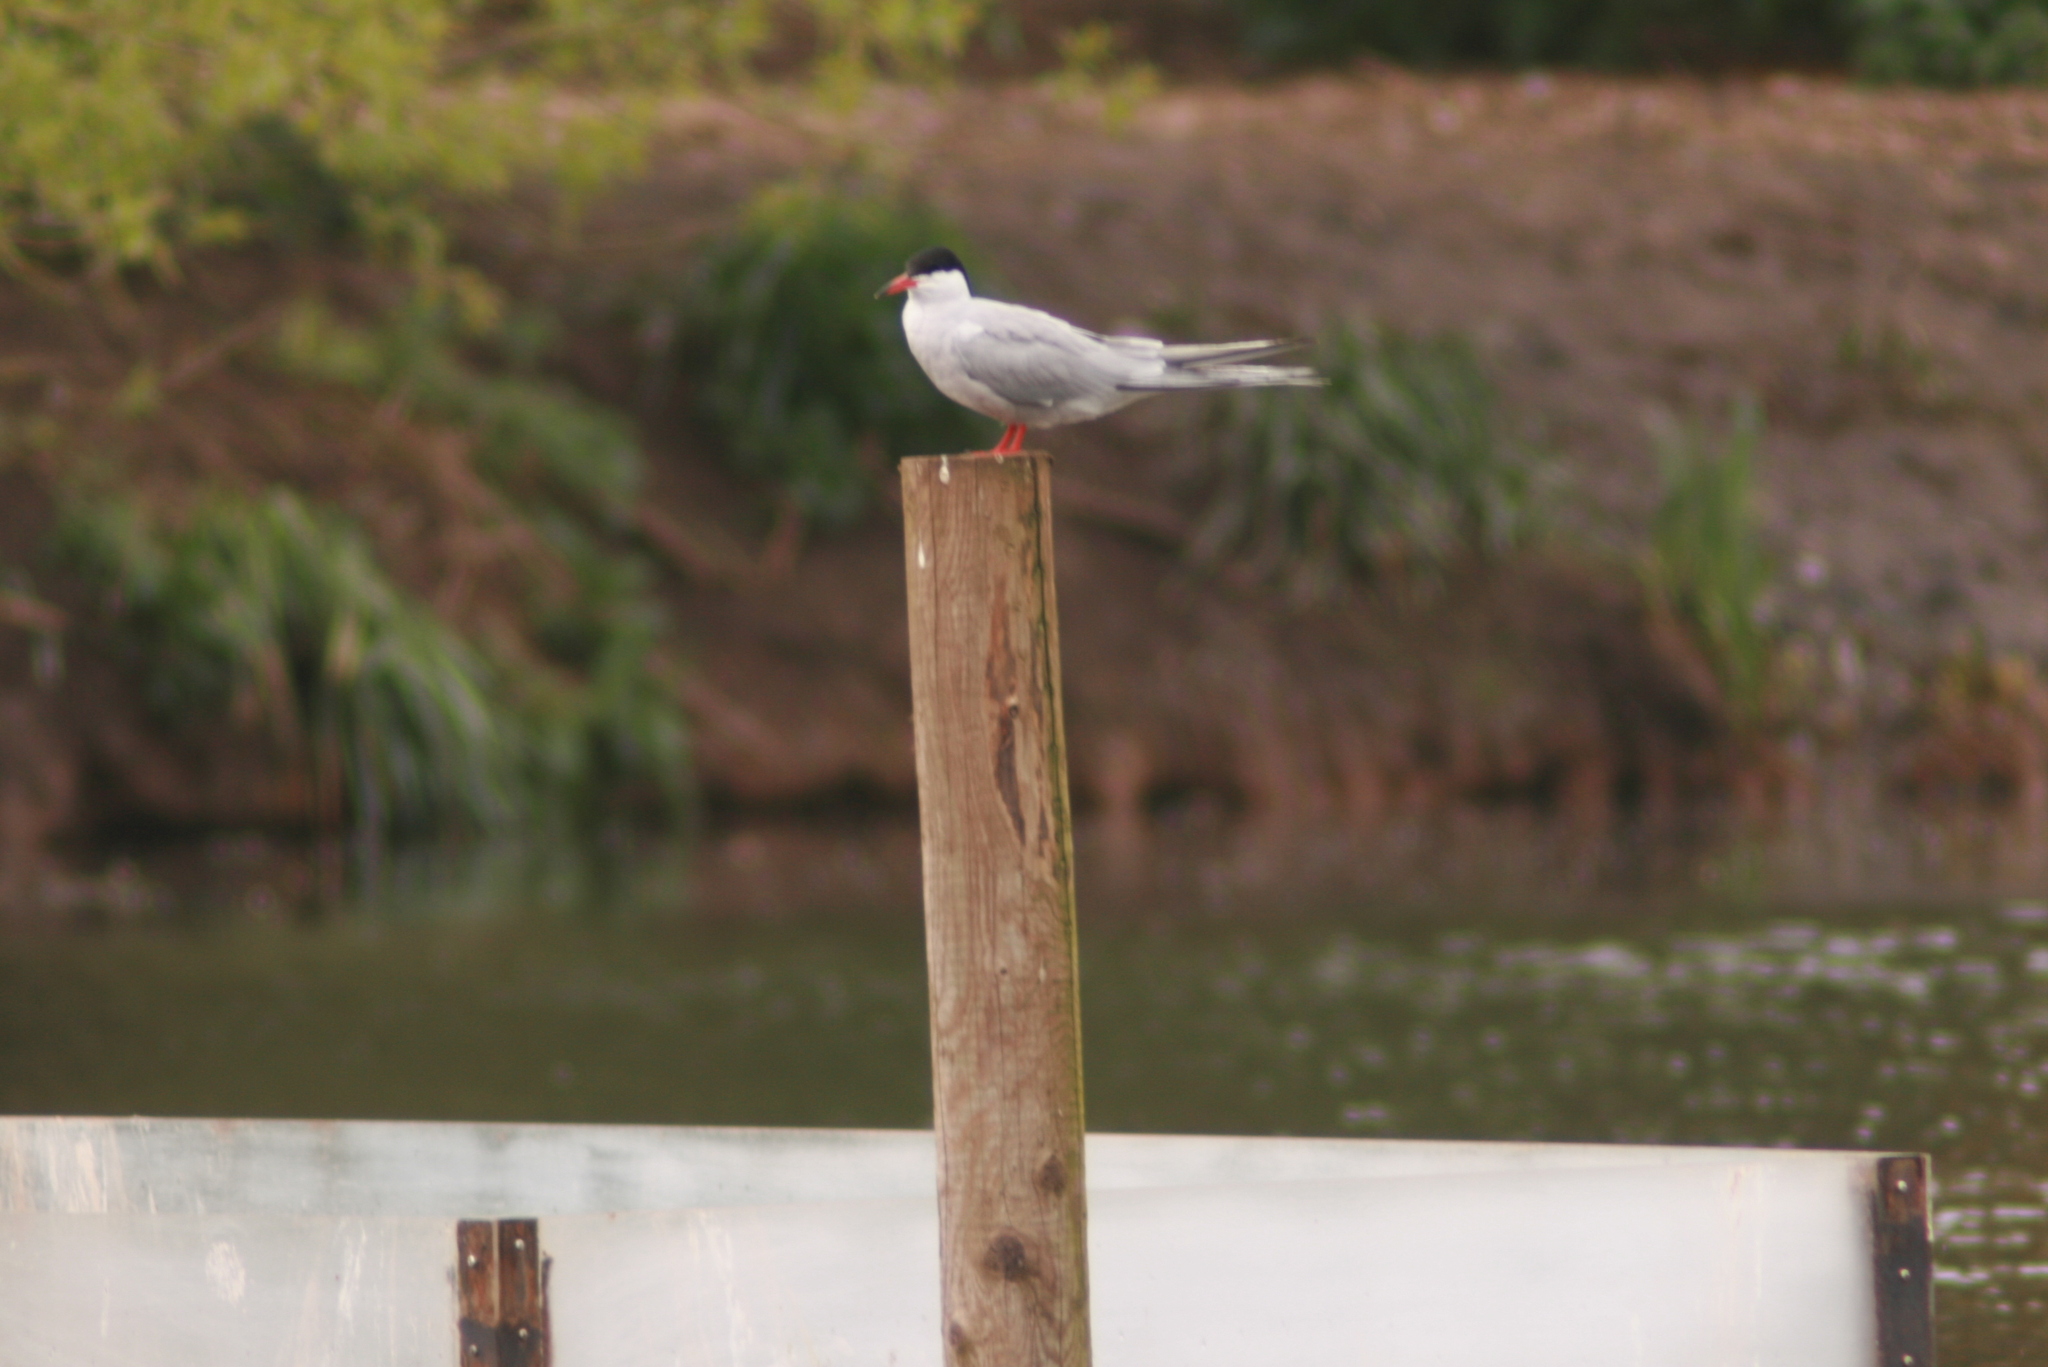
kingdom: Animalia
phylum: Chordata
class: Aves
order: Charadriiformes
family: Laridae
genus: Sterna
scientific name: Sterna hirundo
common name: Common tern
